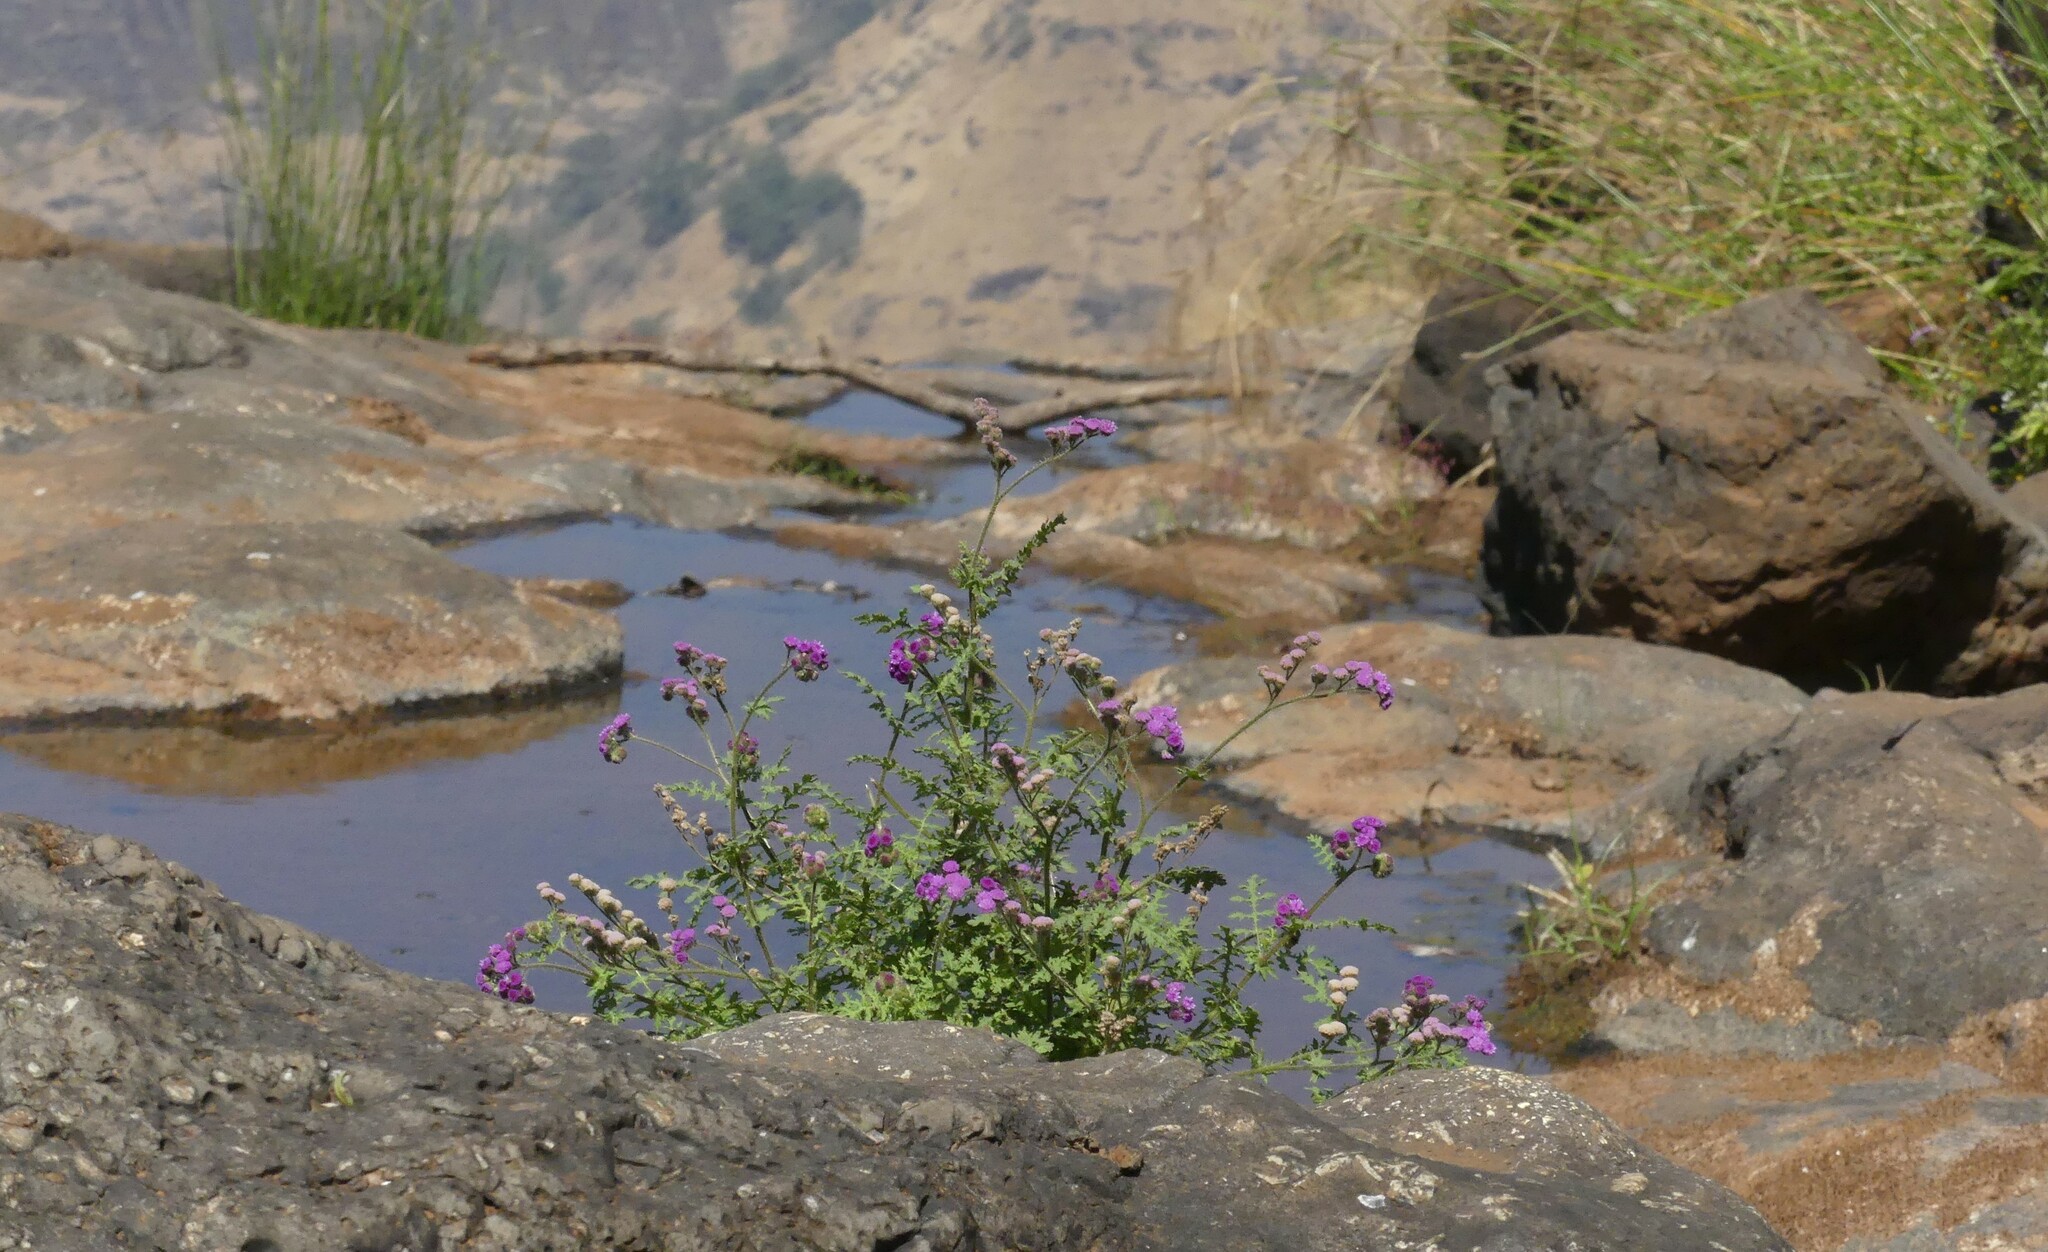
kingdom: Plantae
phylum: Tracheophyta
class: Magnoliopsida
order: Asterales
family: Asteraceae
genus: Cyathocline
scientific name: Cyathocline purpurea
